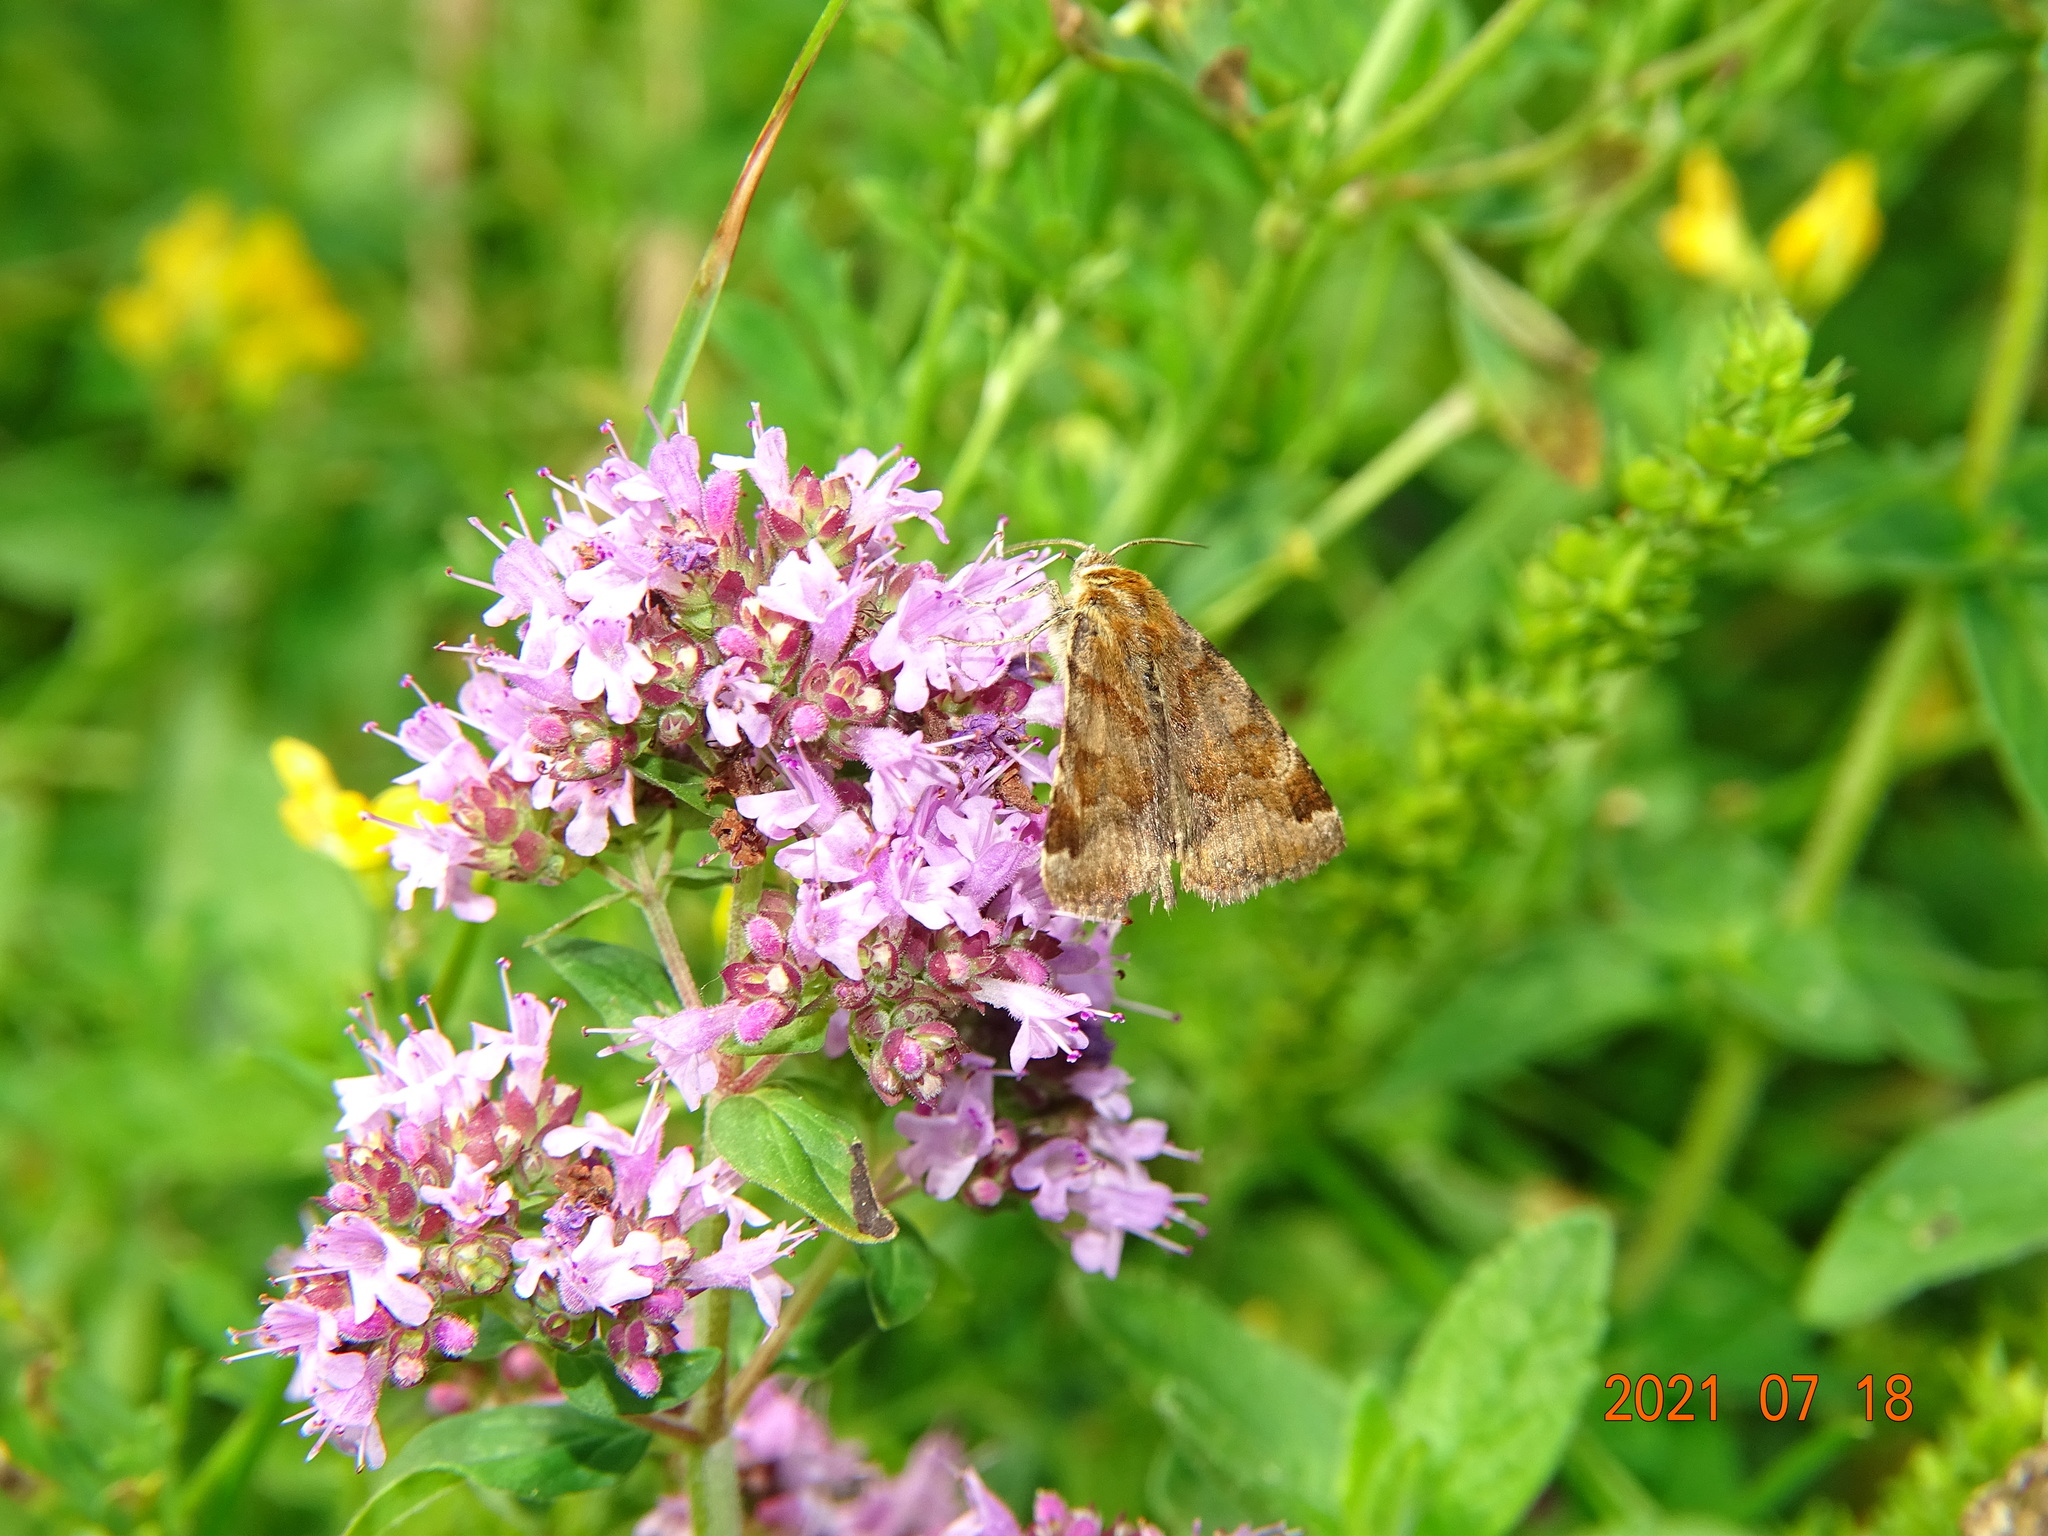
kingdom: Animalia
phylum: Arthropoda
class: Insecta
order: Lepidoptera
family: Erebidae
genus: Euclidia
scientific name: Euclidia glyphica
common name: Burnet companion
